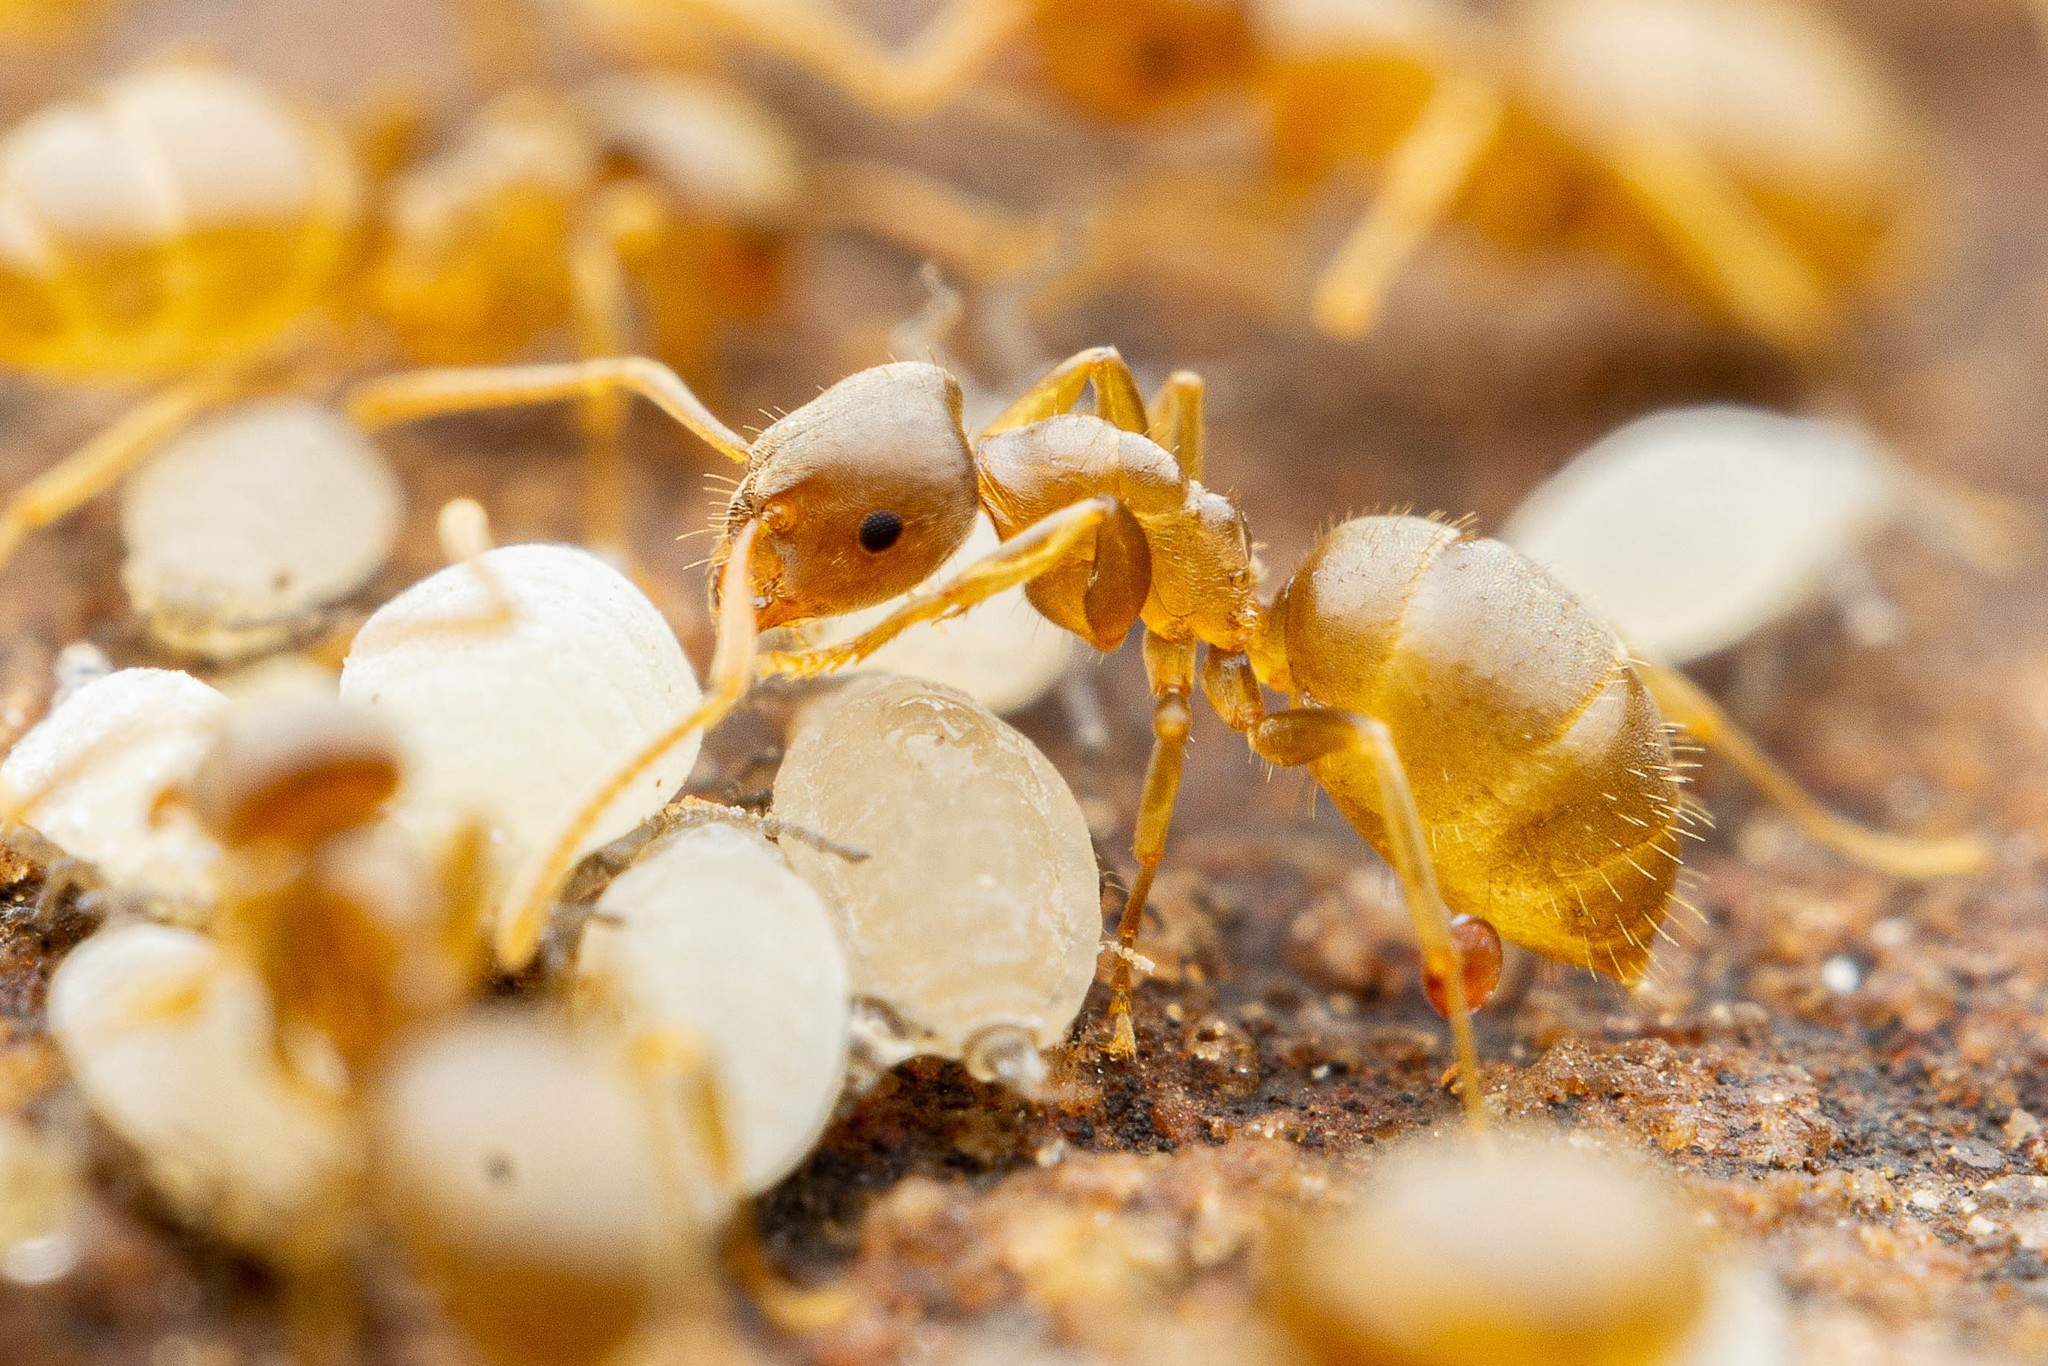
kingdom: Animalia
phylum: Arthropoda
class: Insecta
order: Hymenoptera
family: Formicidae
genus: Lasius
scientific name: Lasius sitiens
